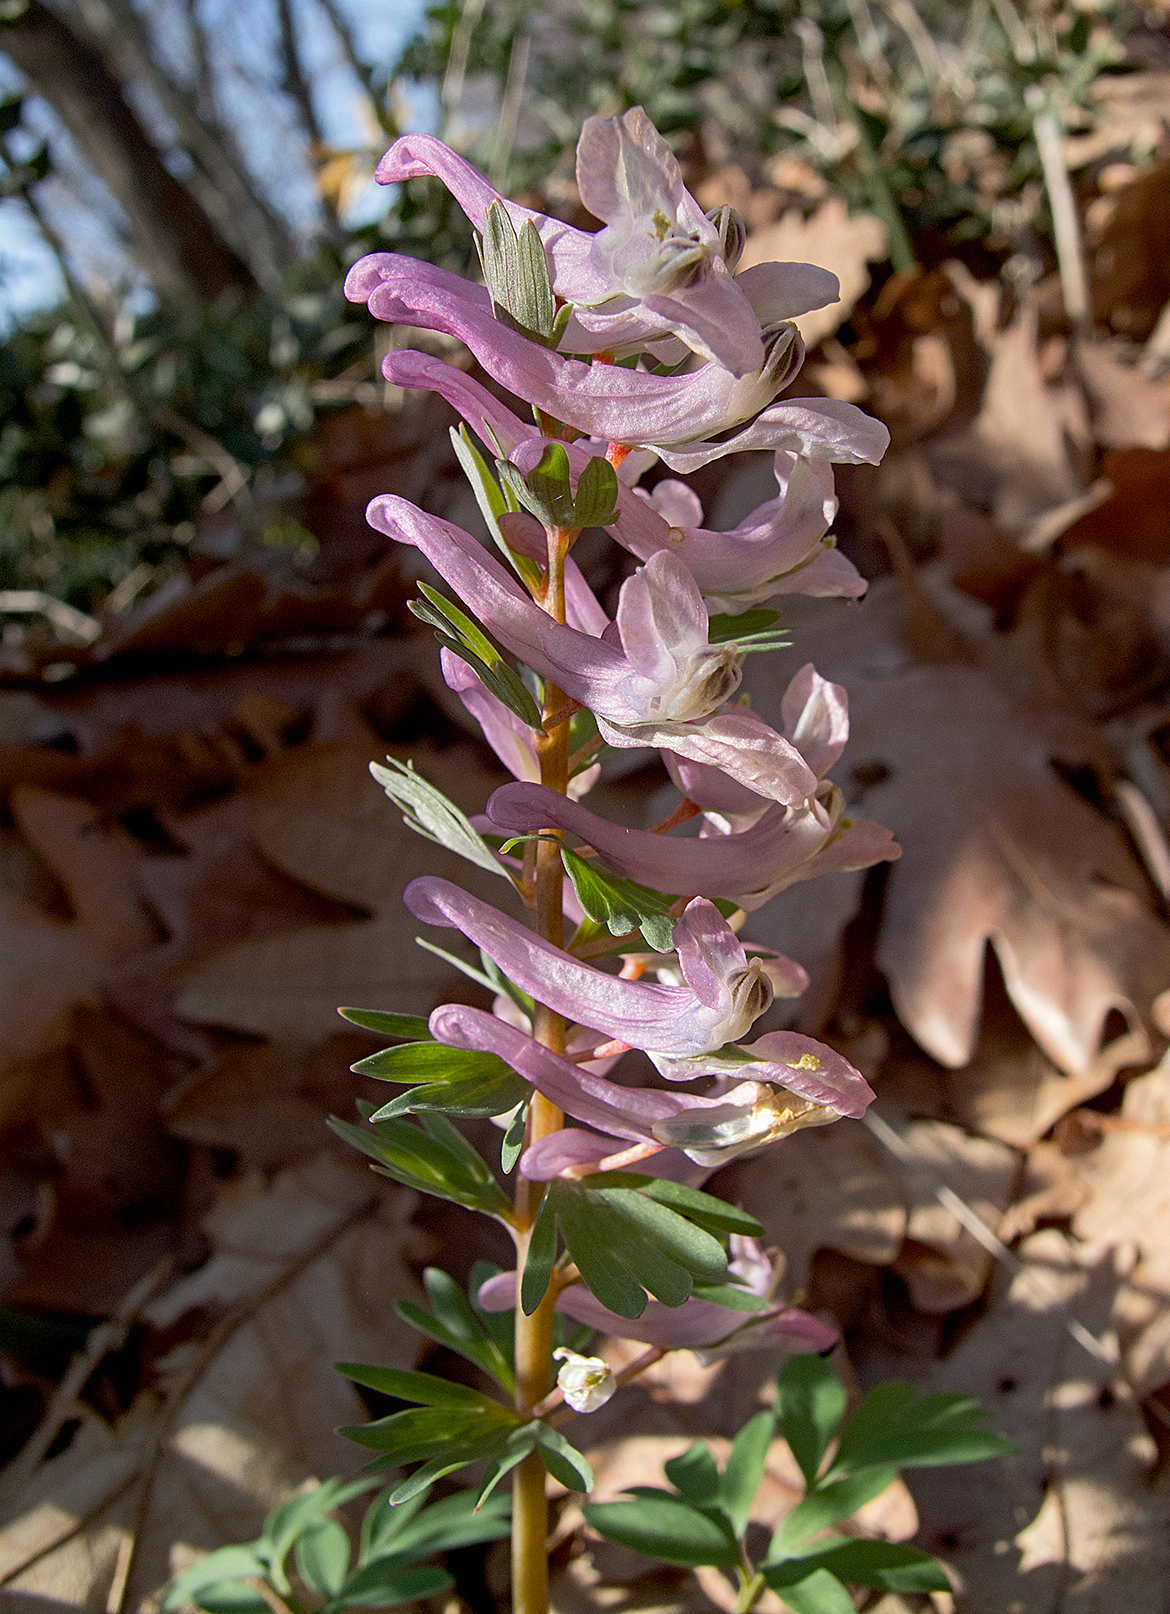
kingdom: Plantae
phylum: Tracheophyta
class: Magnoliopsida
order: Ranunculales
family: Papaveraceae
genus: Corydalis
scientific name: Corydalis solida
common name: Bird-in-a-bush
